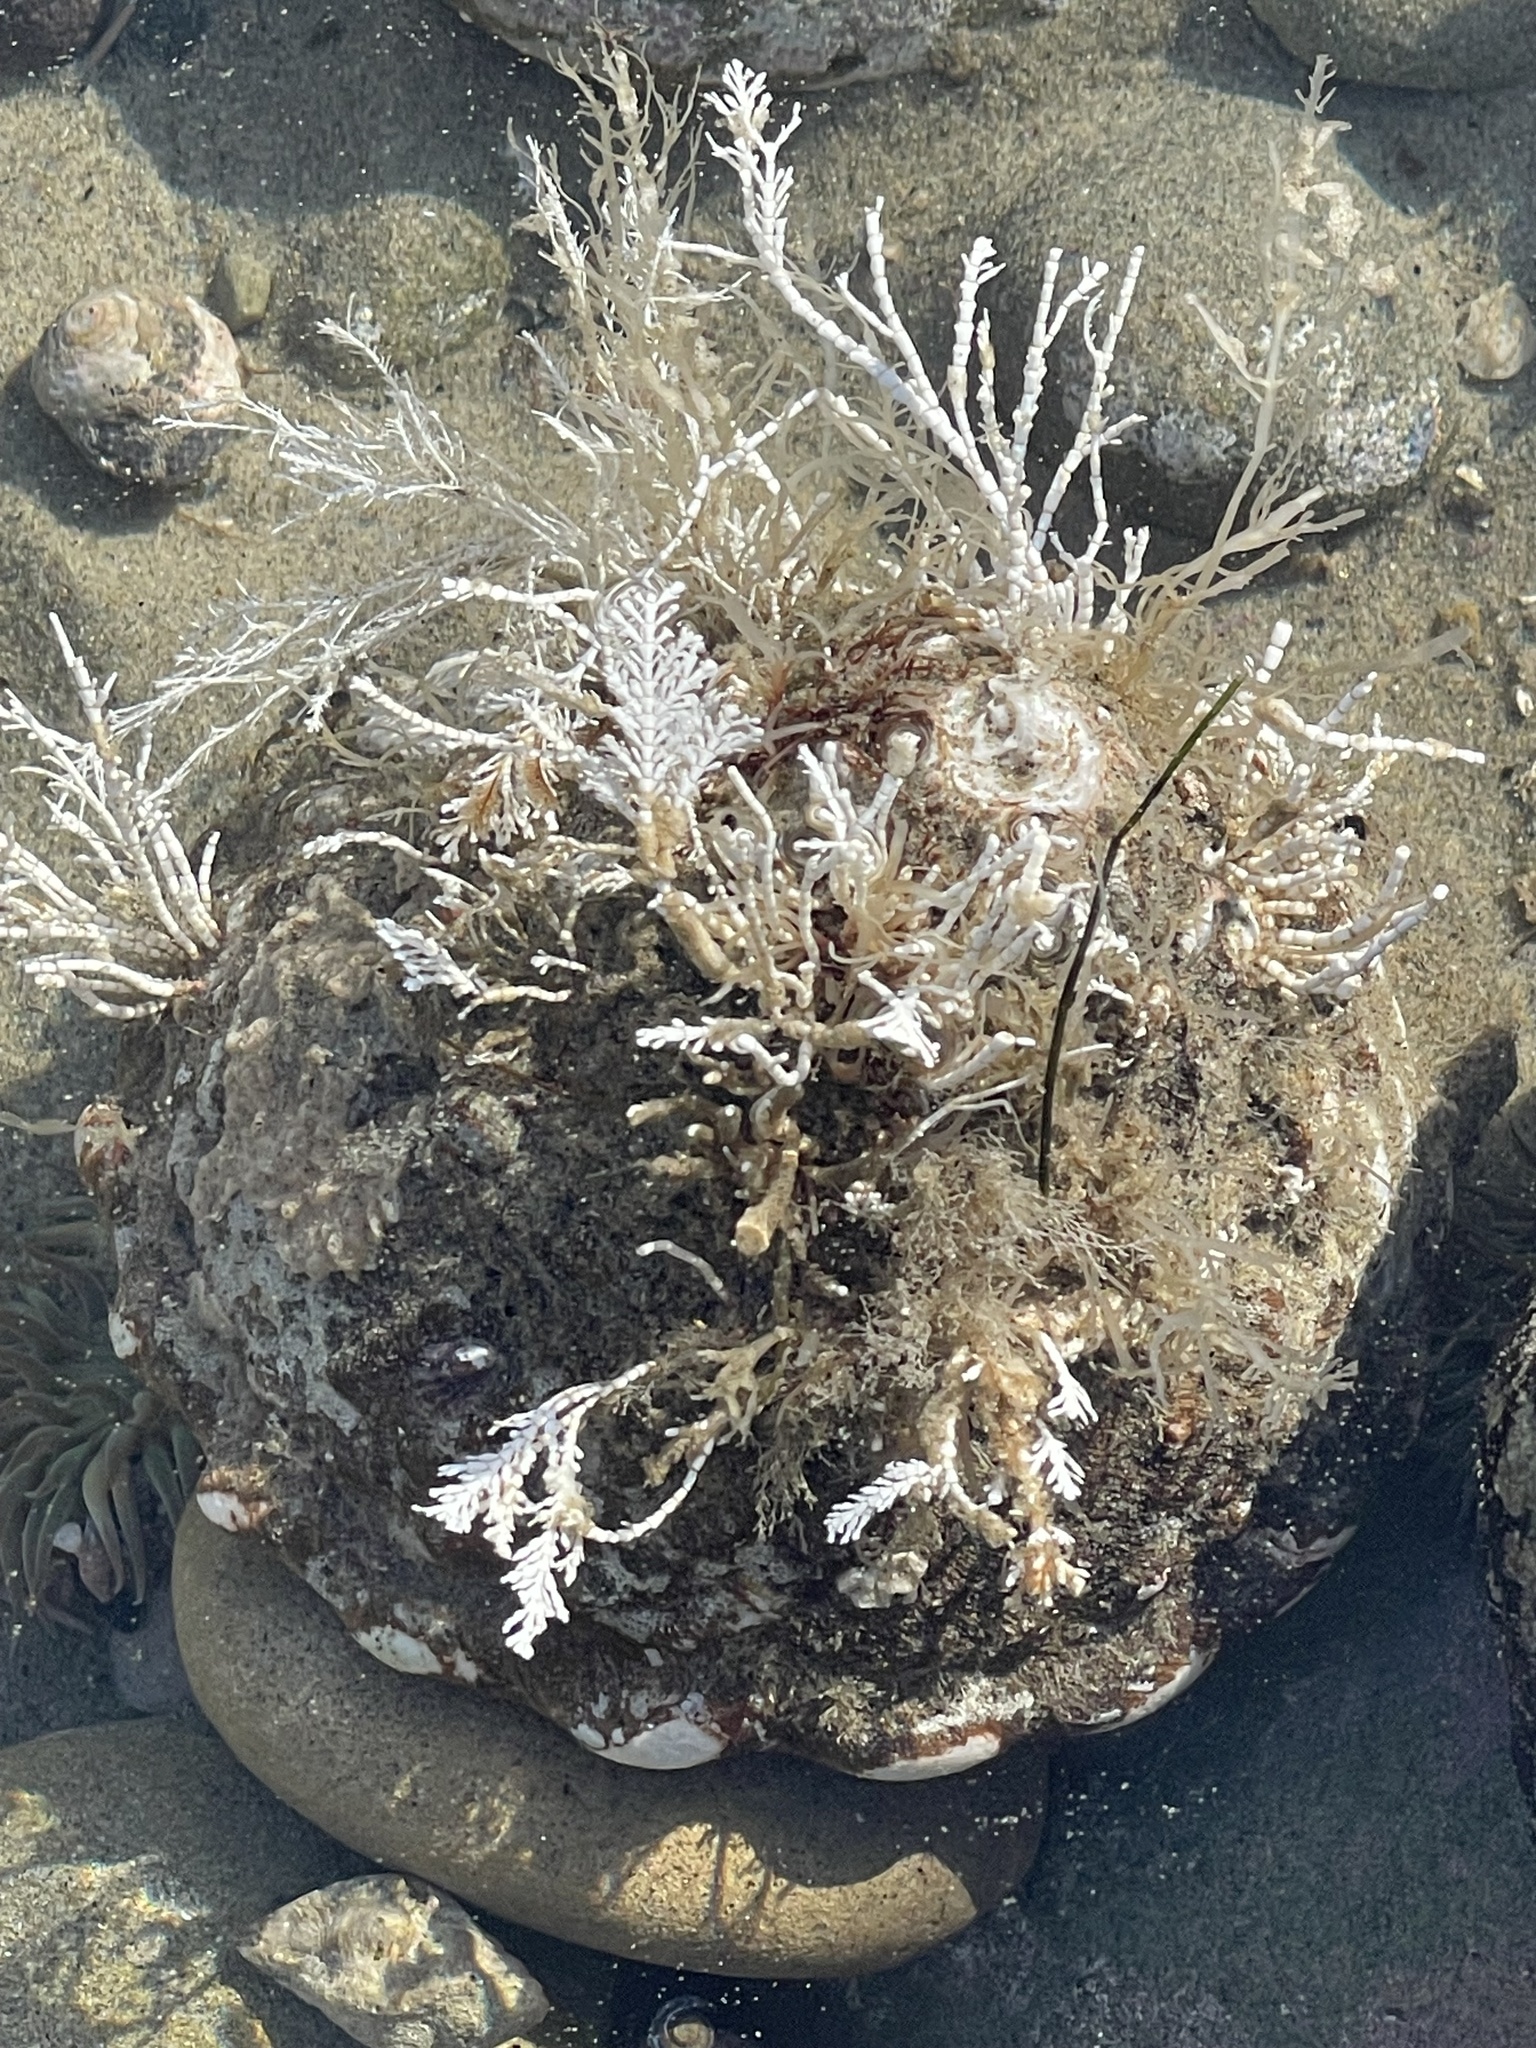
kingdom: Animalia
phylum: Mollusca
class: Gastropoda
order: Trochida
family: Turbinidae
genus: Megastraea
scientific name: Megastraea undosa
